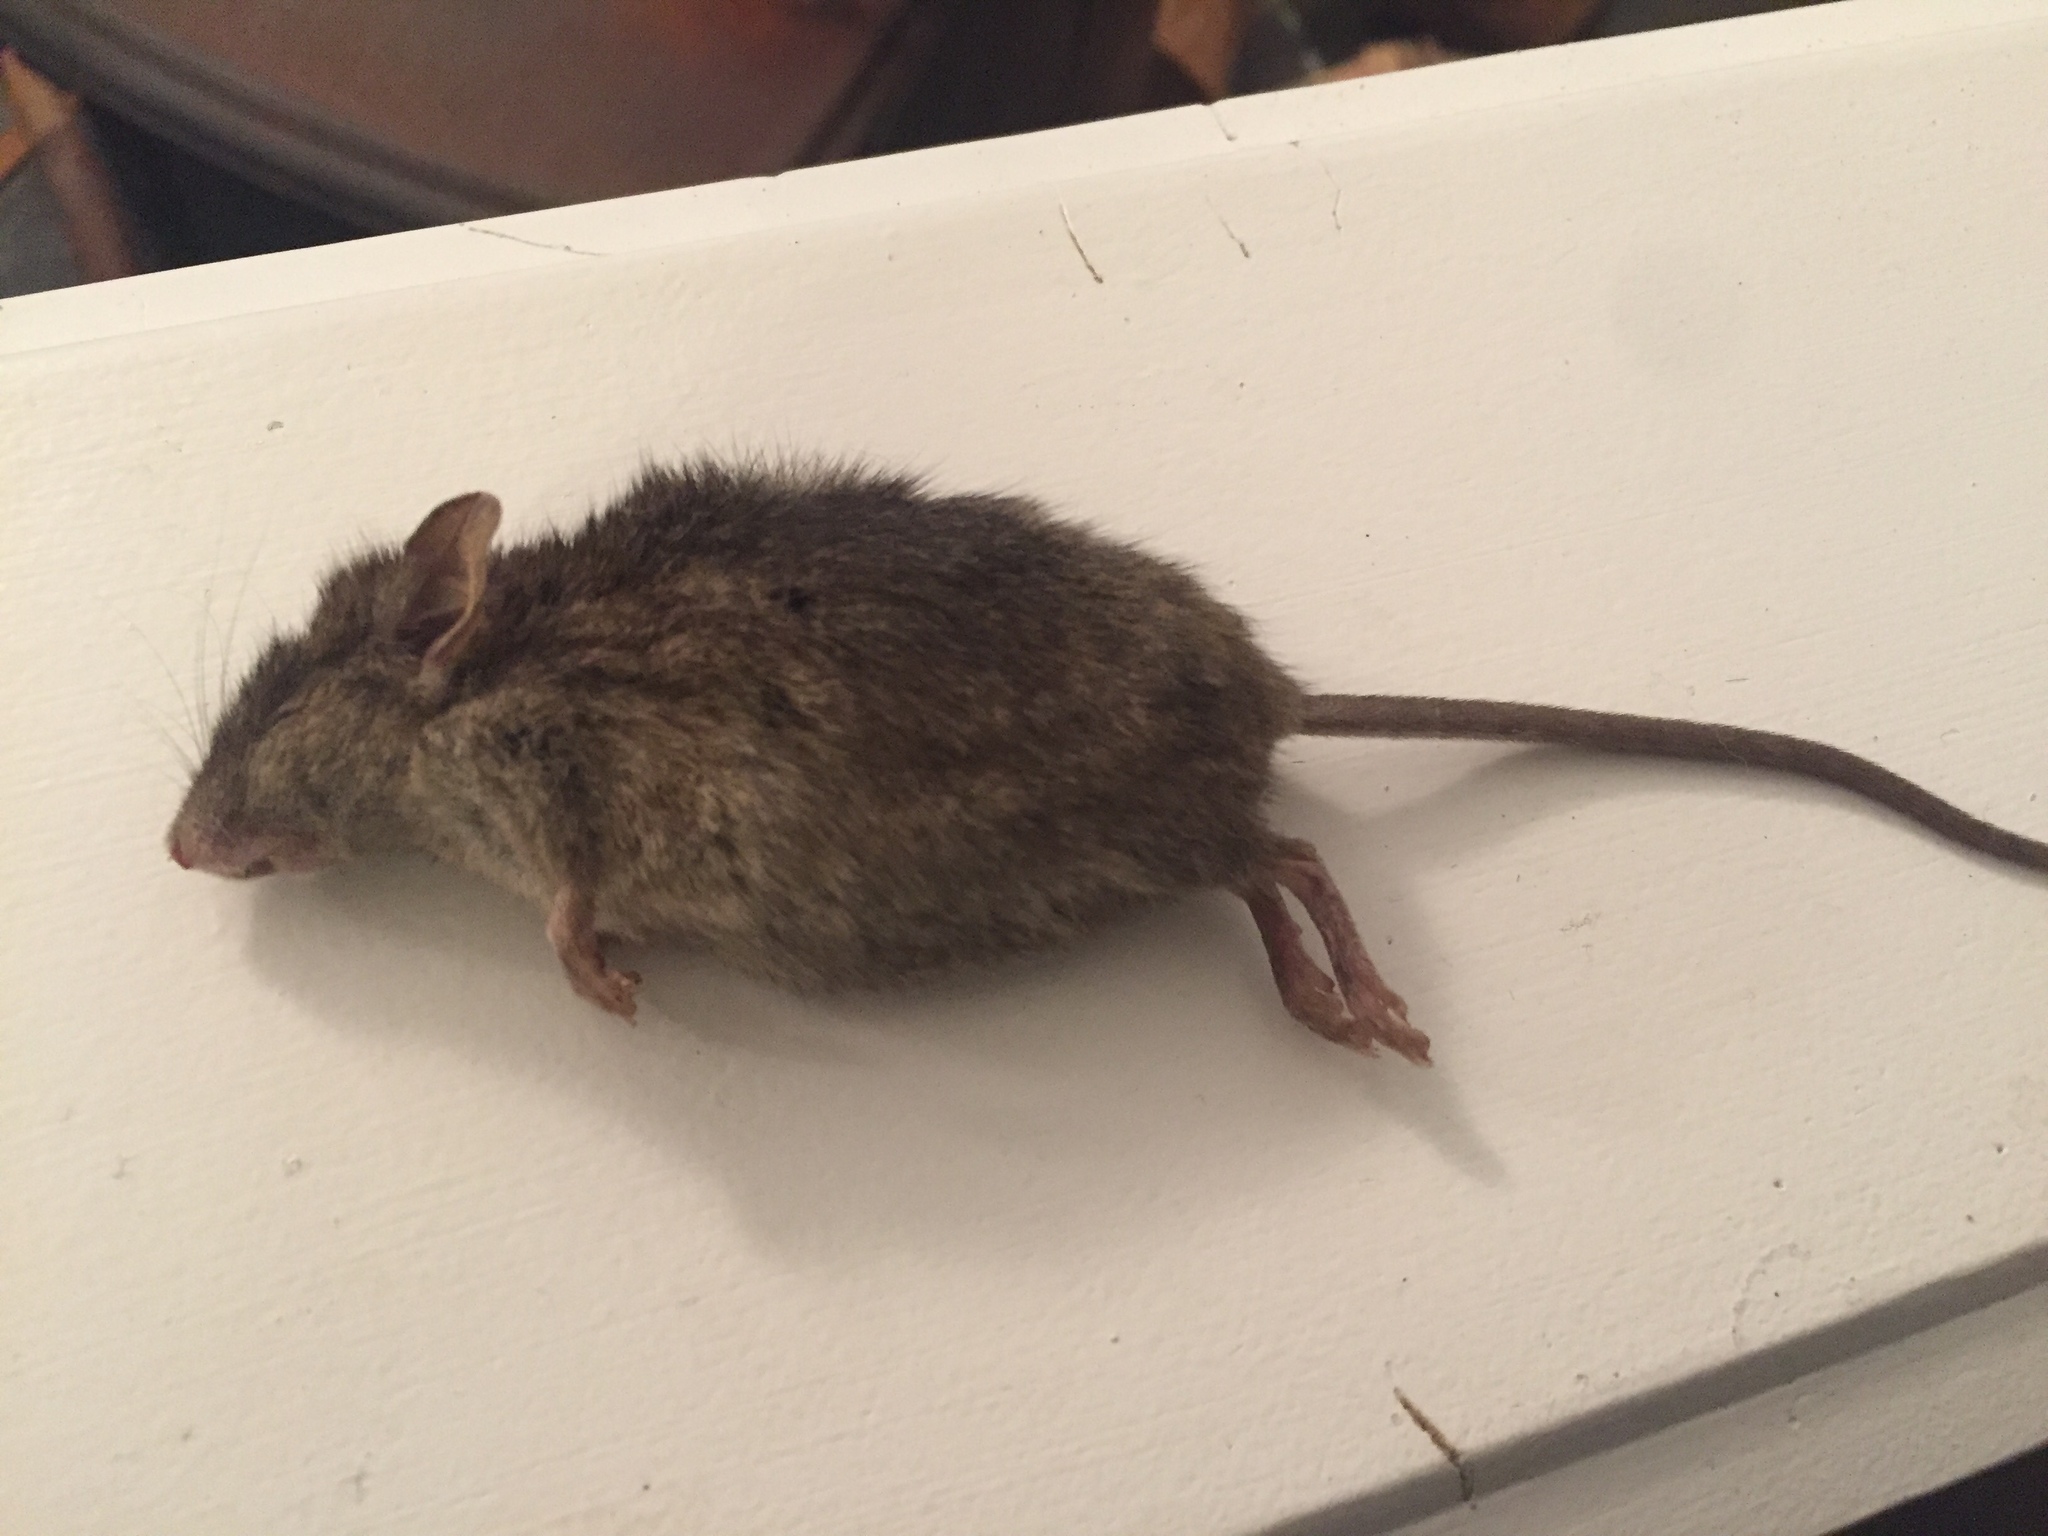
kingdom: Animalia
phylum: Chordata
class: Mammalia
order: Rodentia
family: Muridae
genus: Mus
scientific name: Mus musculus
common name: House mouse
